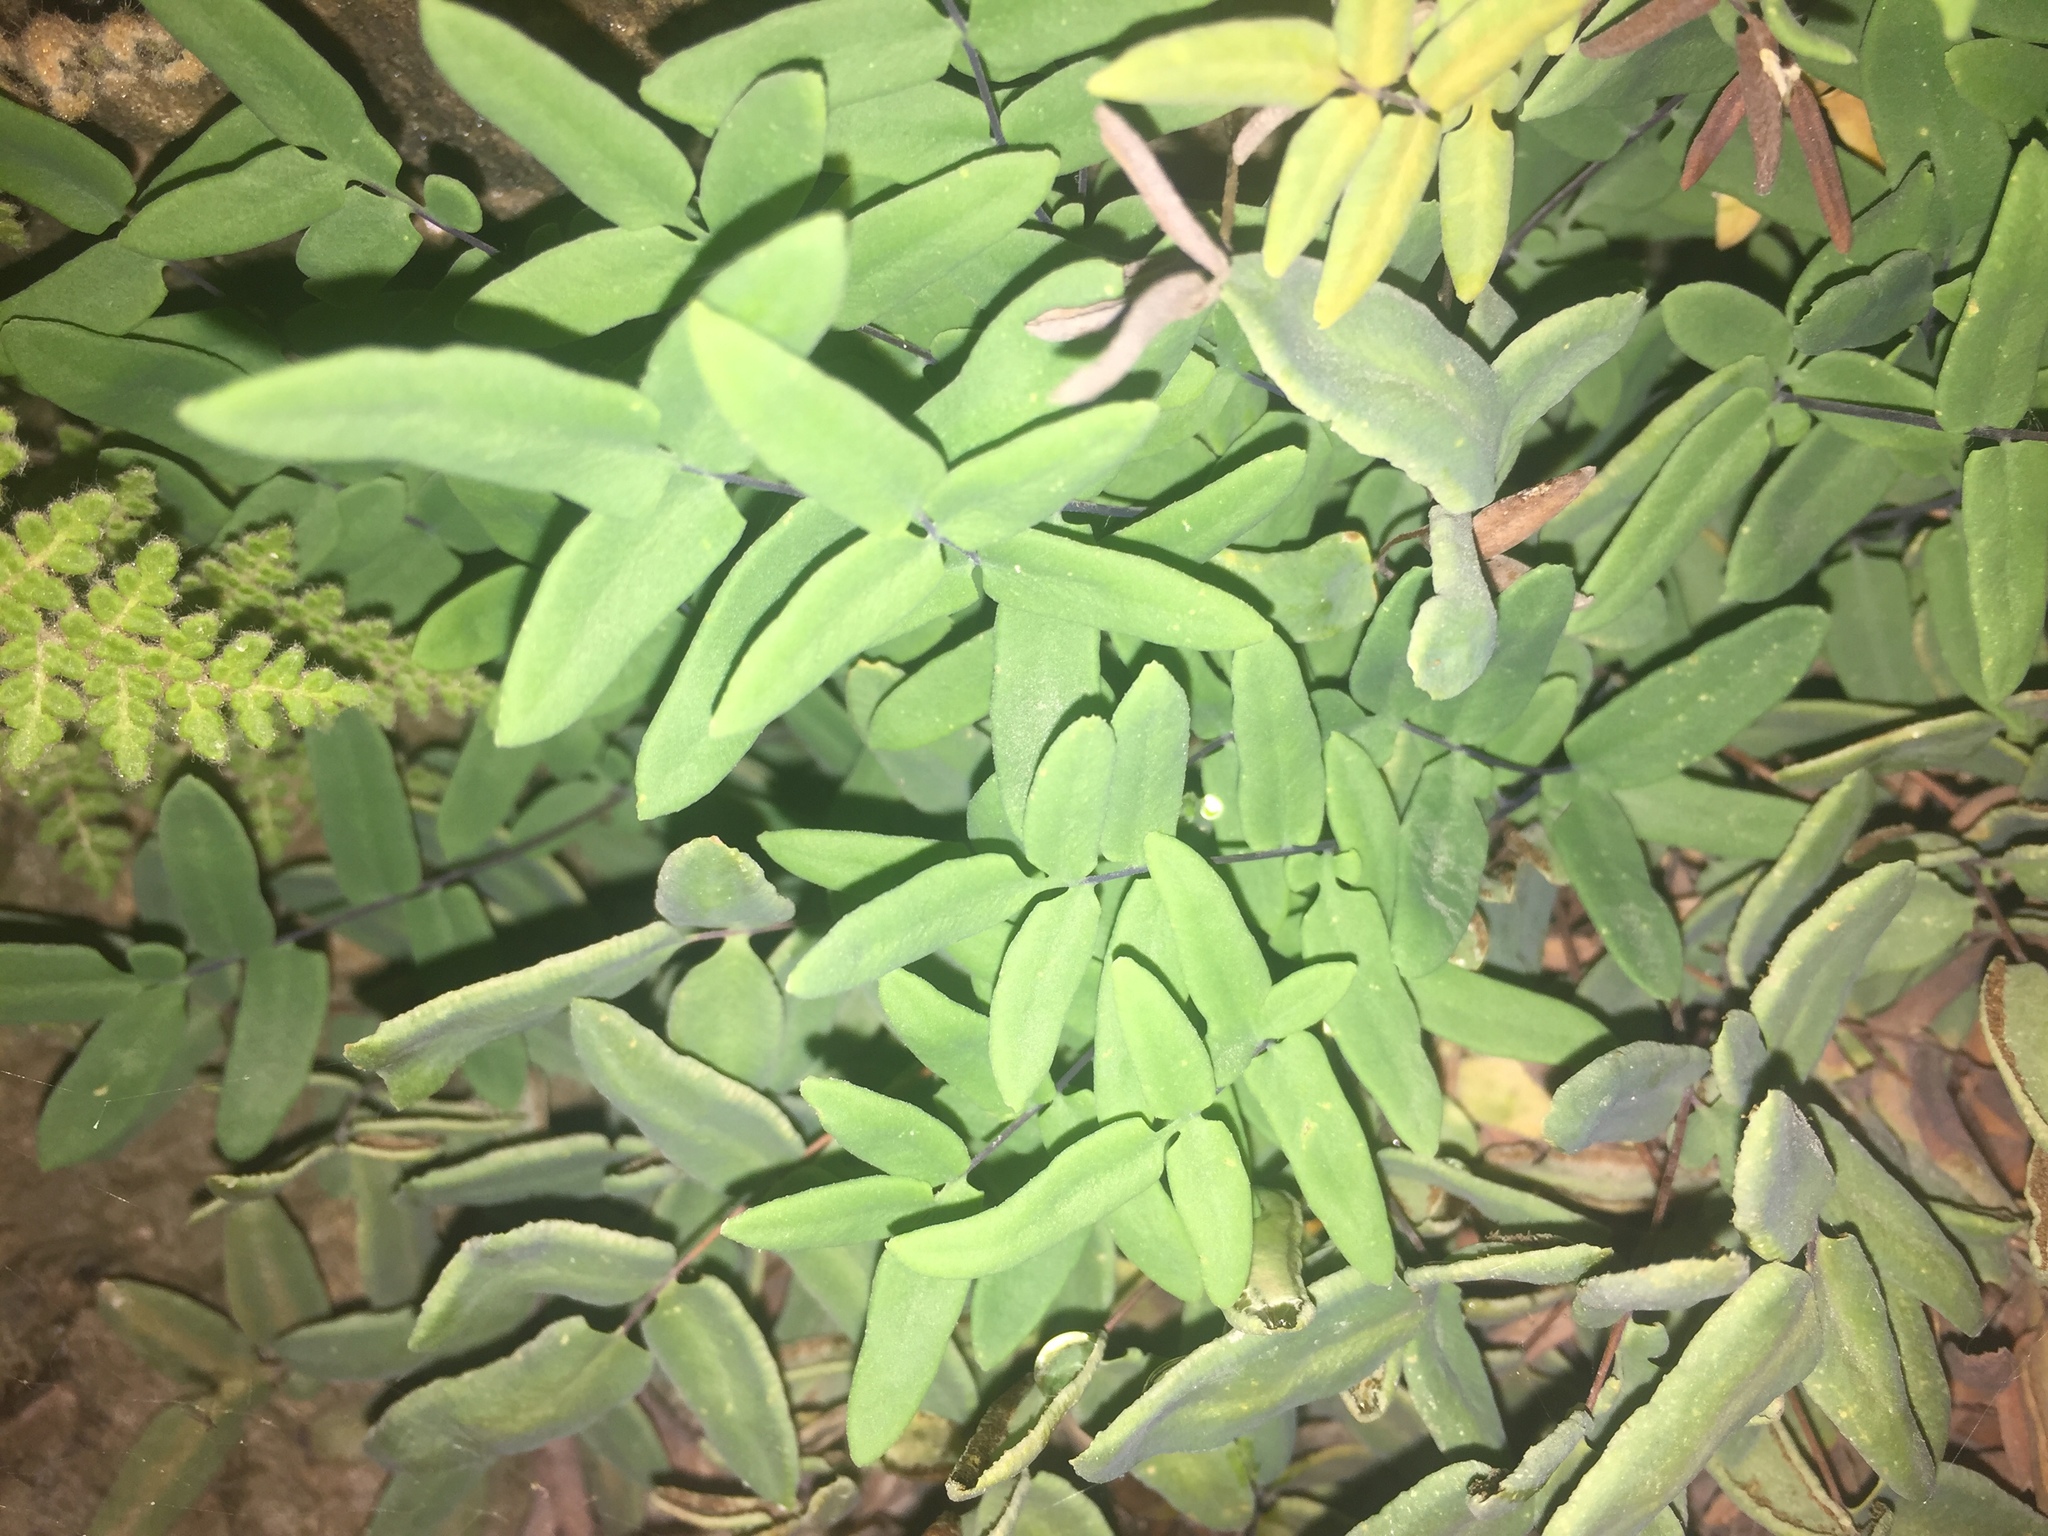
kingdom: Plantae
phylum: Tracheophyta
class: Polypodiopsida
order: Polypodiales
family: Pteridaceae
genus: Pellaea
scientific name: Pellaea glabella
